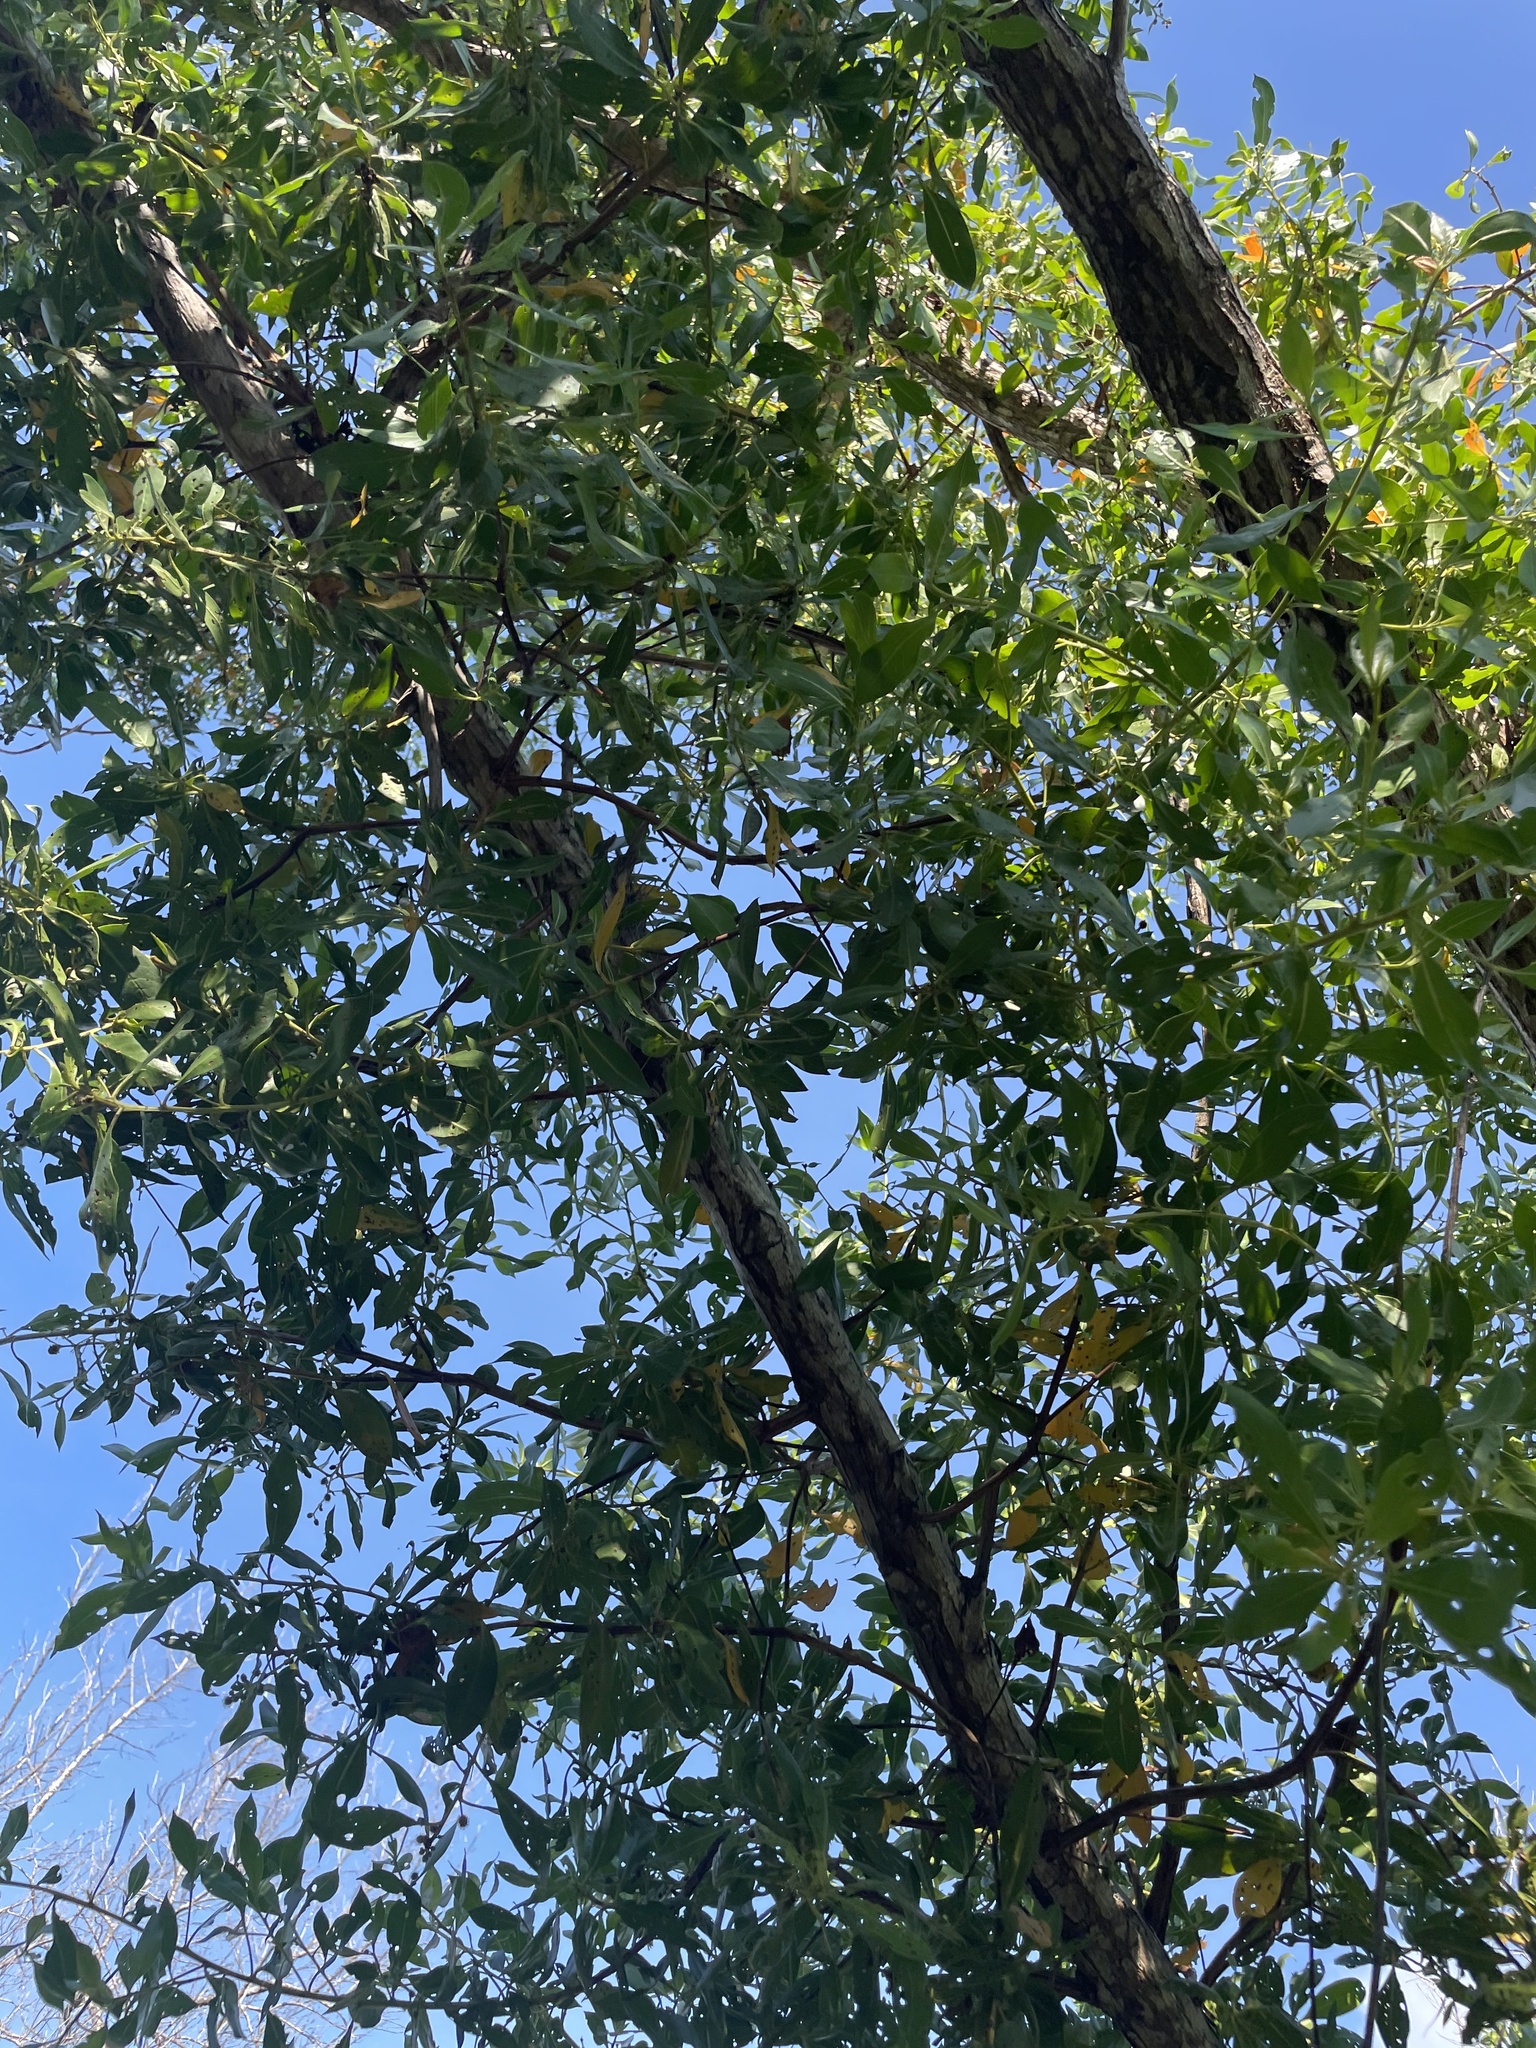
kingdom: Plantae
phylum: Tracheophyta
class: Magnoliopsida
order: Myrtales
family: Combretaceae
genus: Conocarpus
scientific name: Conocarpus erectus
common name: Button mangrove
